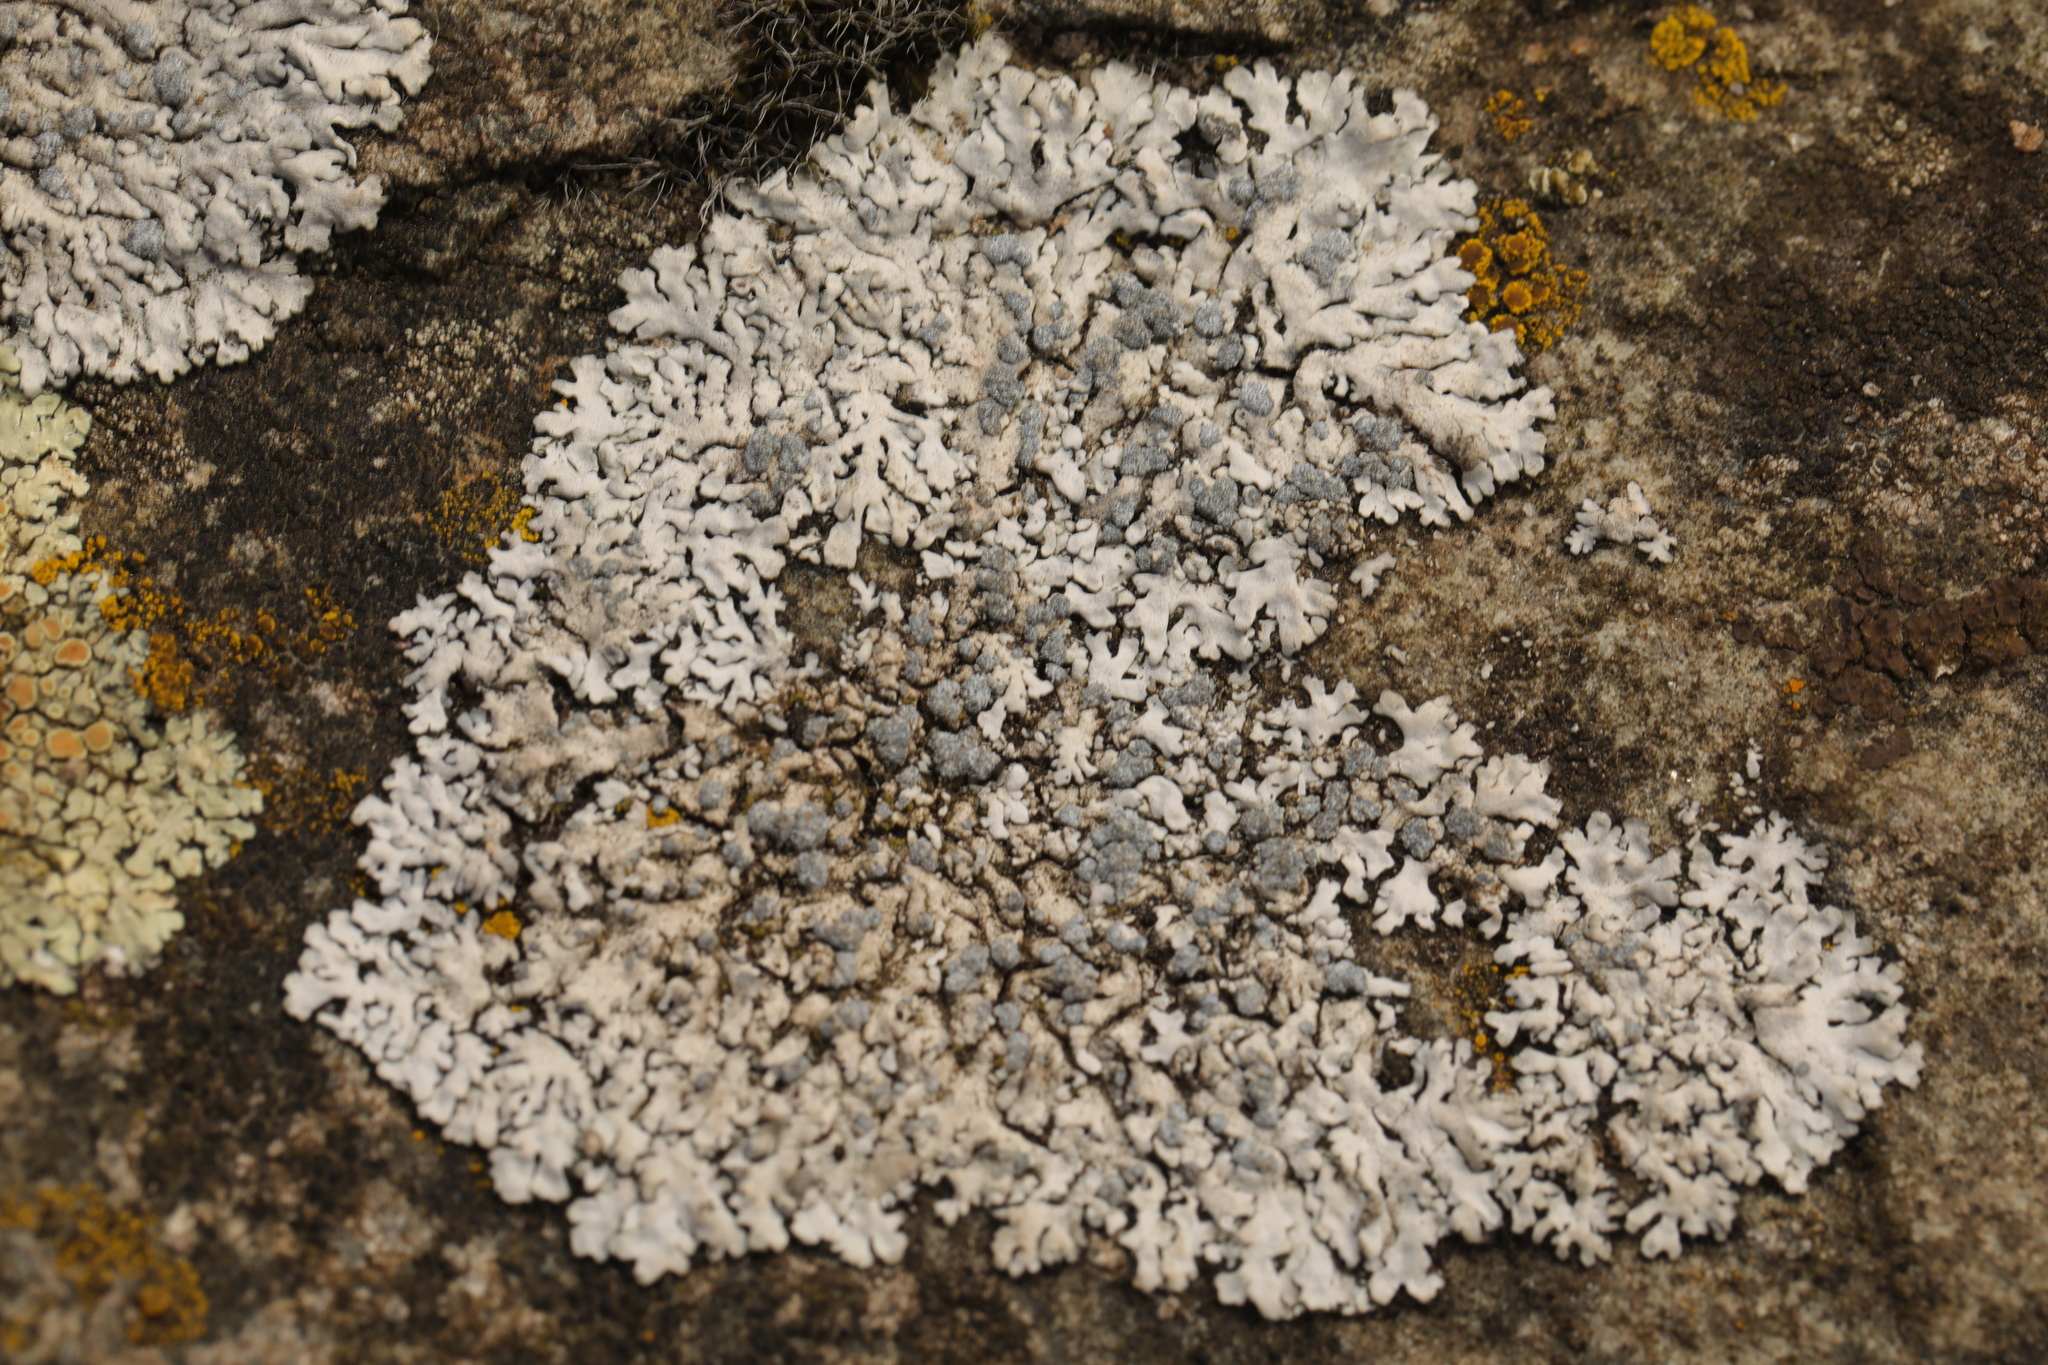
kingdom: Fungi
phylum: Ascomycota
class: Lecanoromycetes
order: Caliciales
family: Physciaceae
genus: Physcia
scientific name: Physcia caesia
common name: Blue-gray rosette lichen
